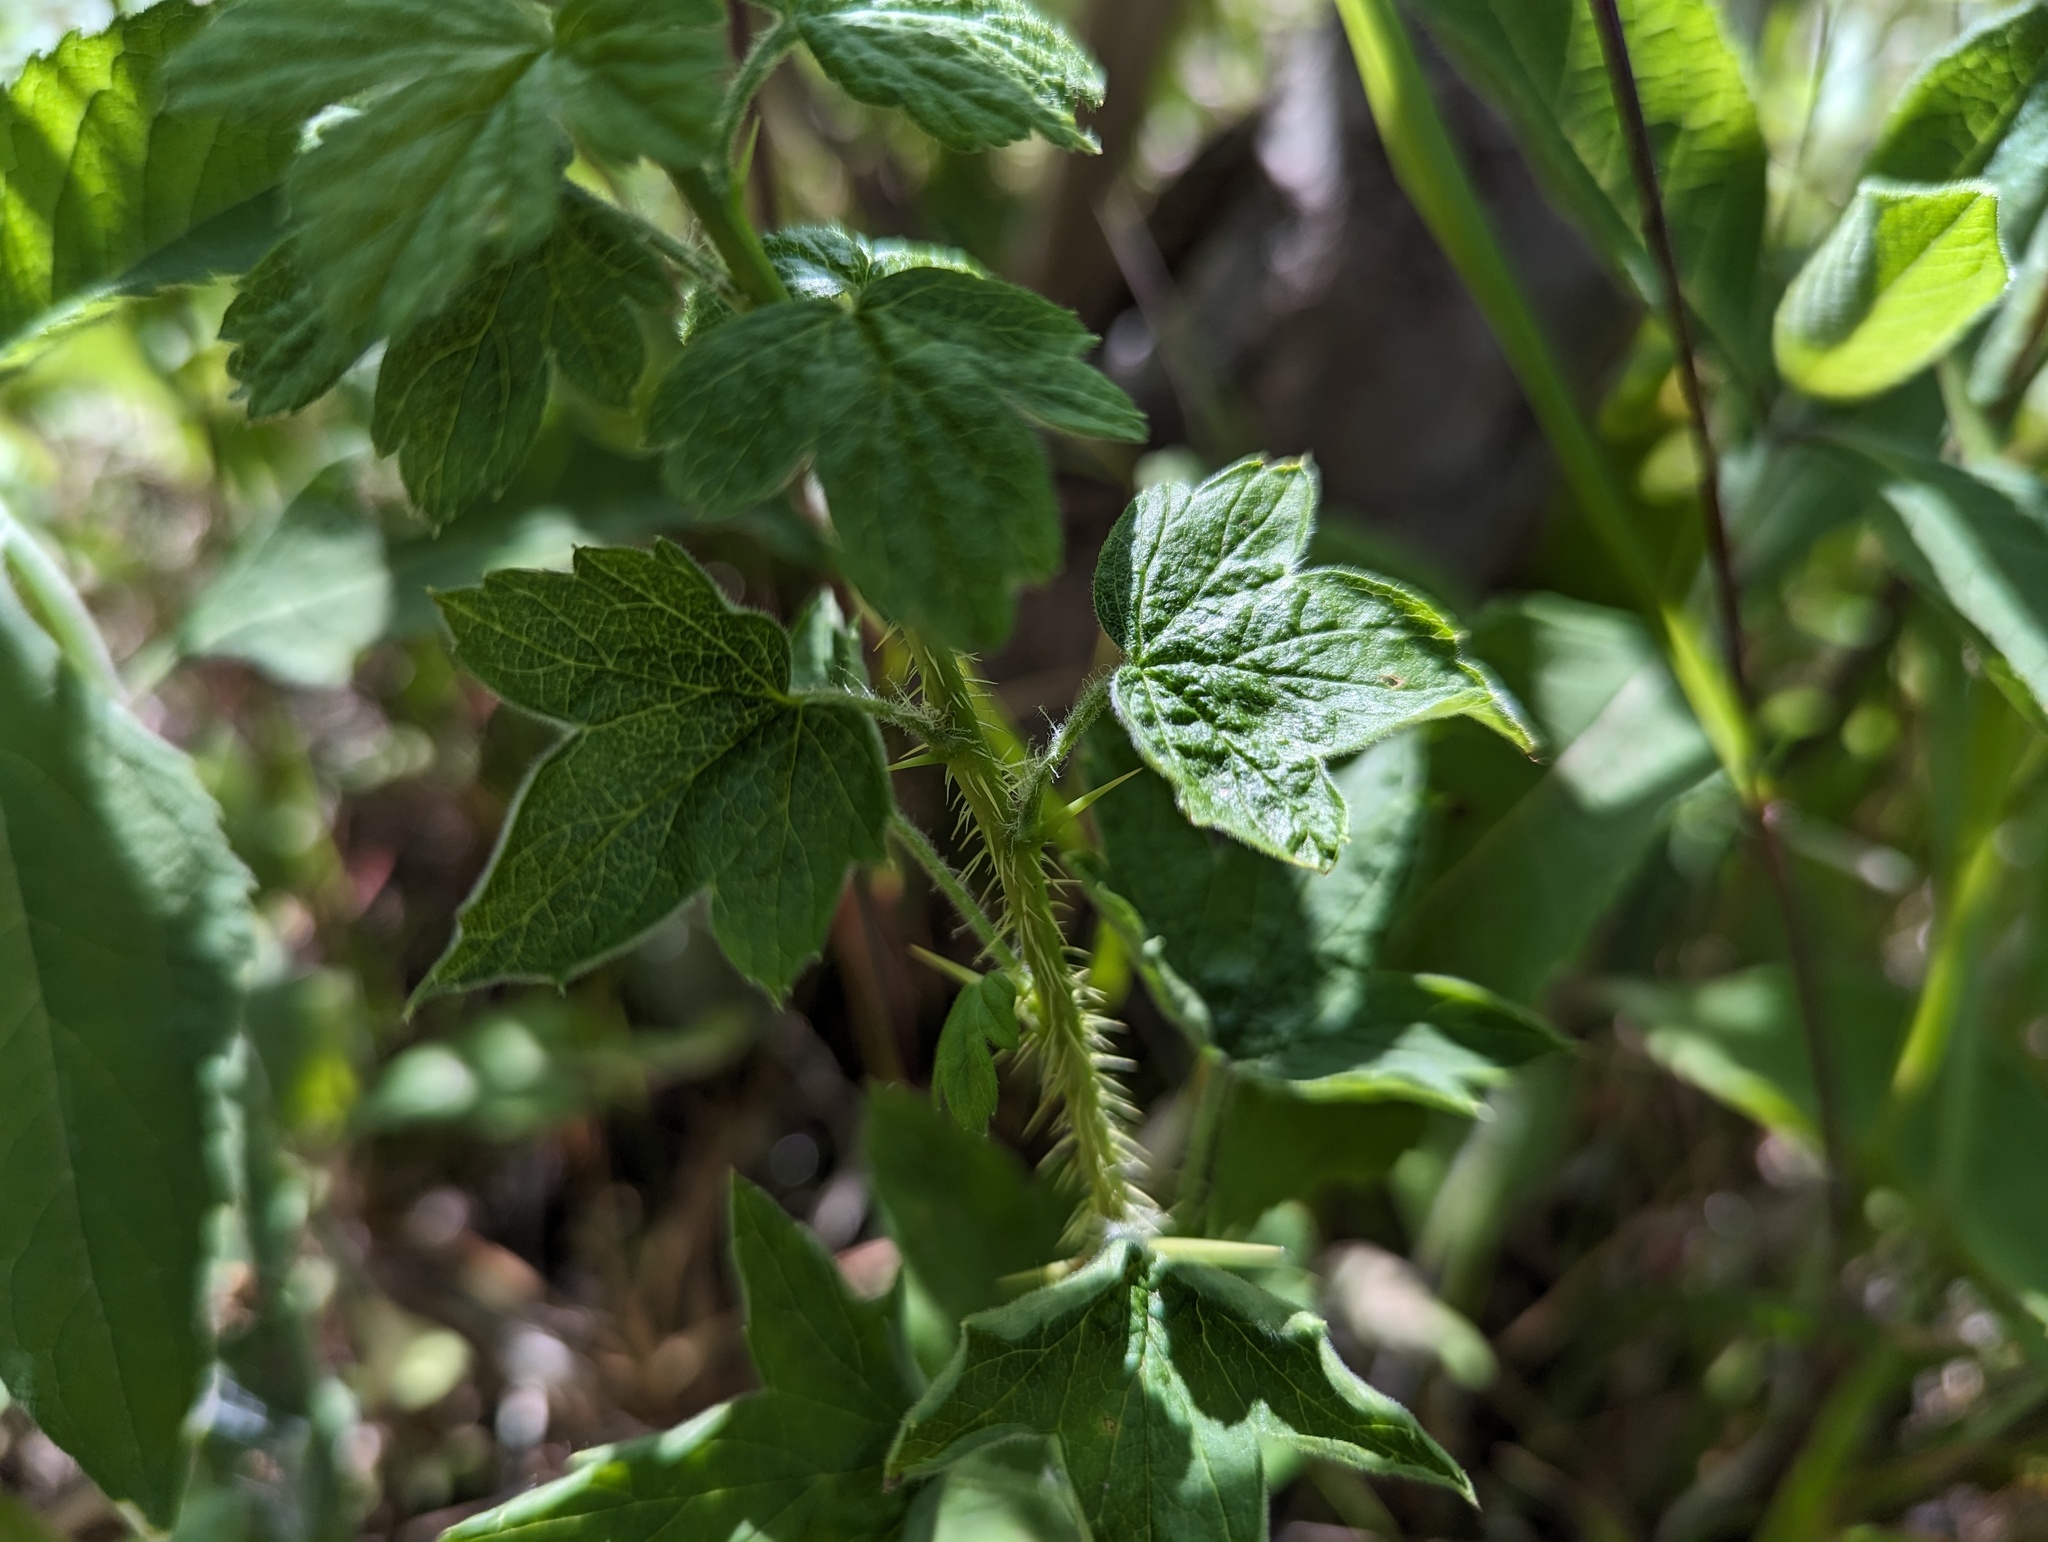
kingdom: Plantae
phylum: Tracheophyta
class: Magnoliopsida
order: Saxifragales
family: Grossulariaceae
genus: Ribes
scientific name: Ribes missouriense
